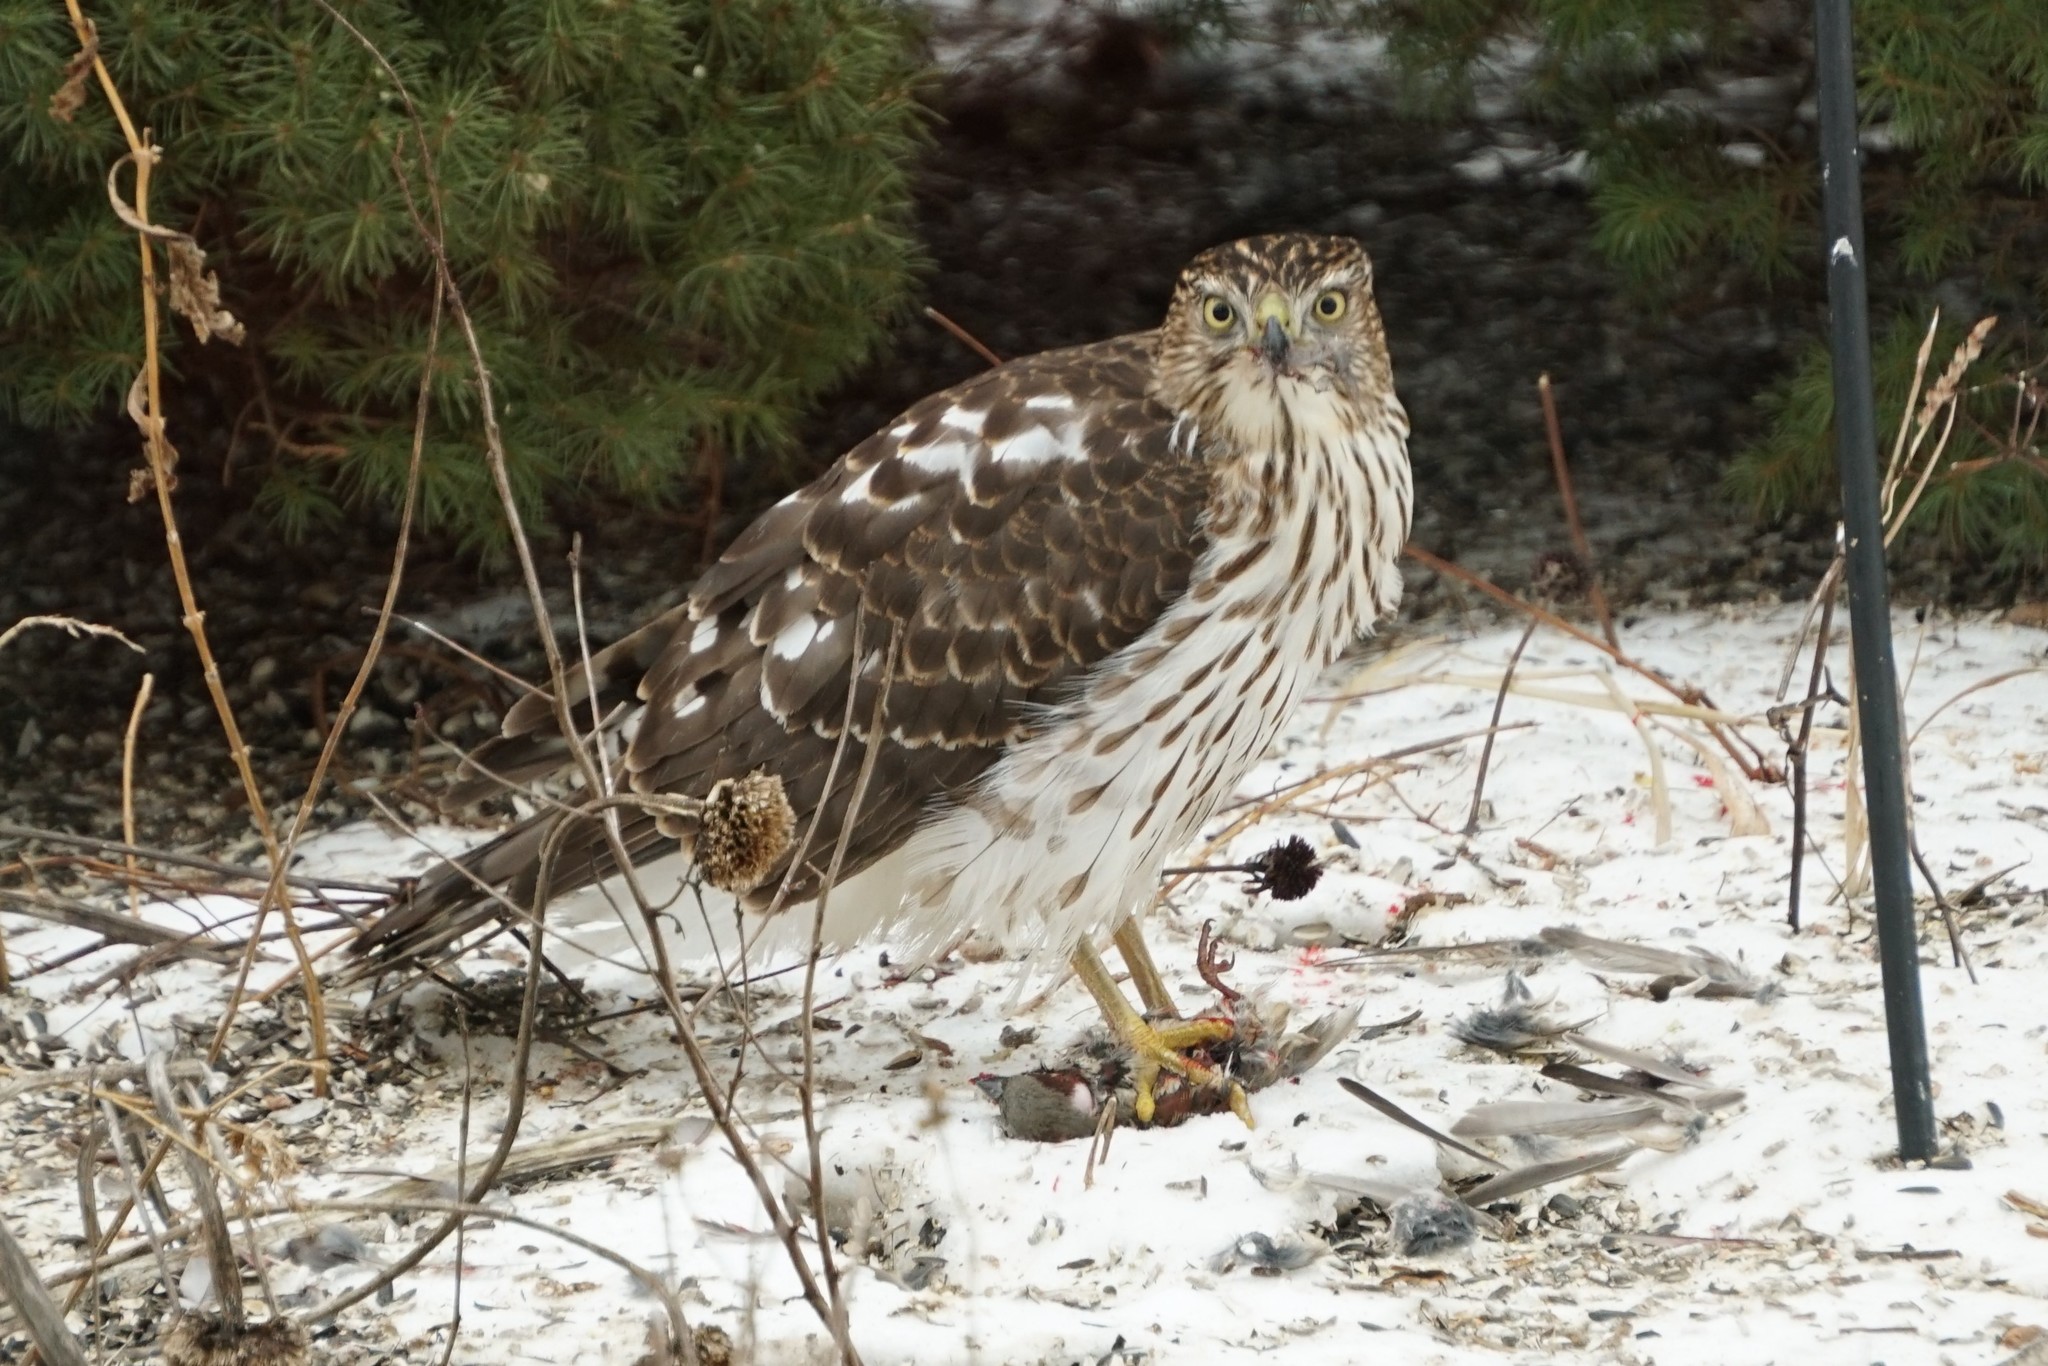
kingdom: Animalia
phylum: Chordata
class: Aves
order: Accipitriformes
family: Accipitridae
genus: Accipiter
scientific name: Accipiter cooperii
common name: Cooper's hawk
